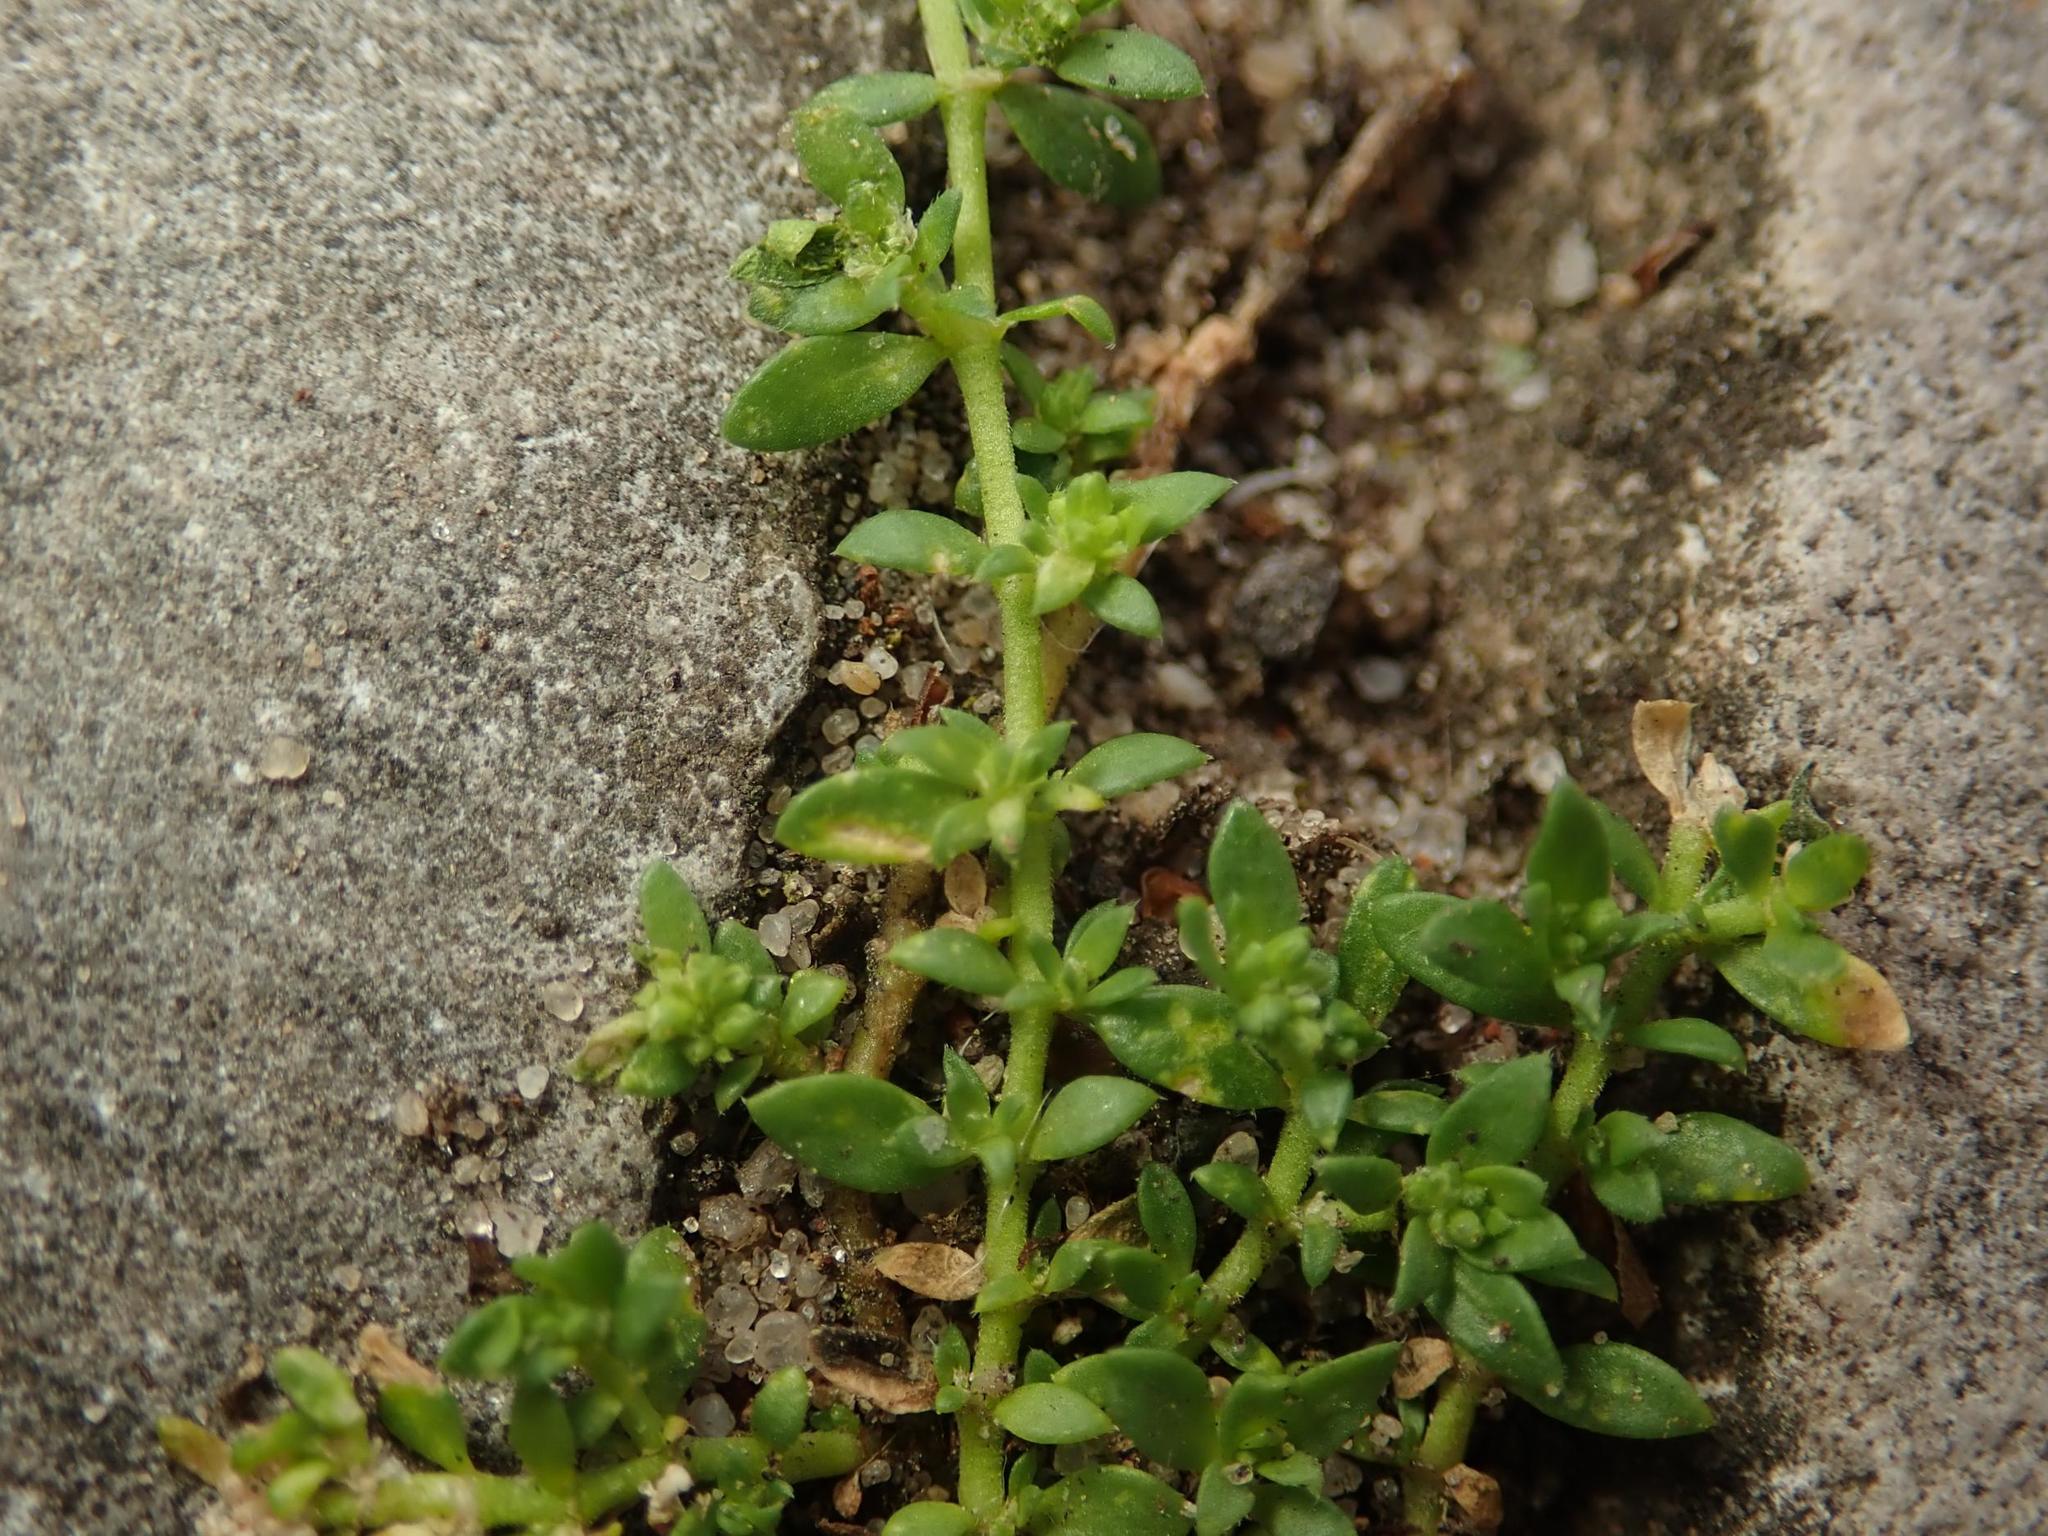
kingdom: Plantae
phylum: Tracheophyta
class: Magnoliopsida
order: Caryophyllales
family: Caryophyllaceae
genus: Herniaria
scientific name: Herniaria glabra
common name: Smooth rupturewort
